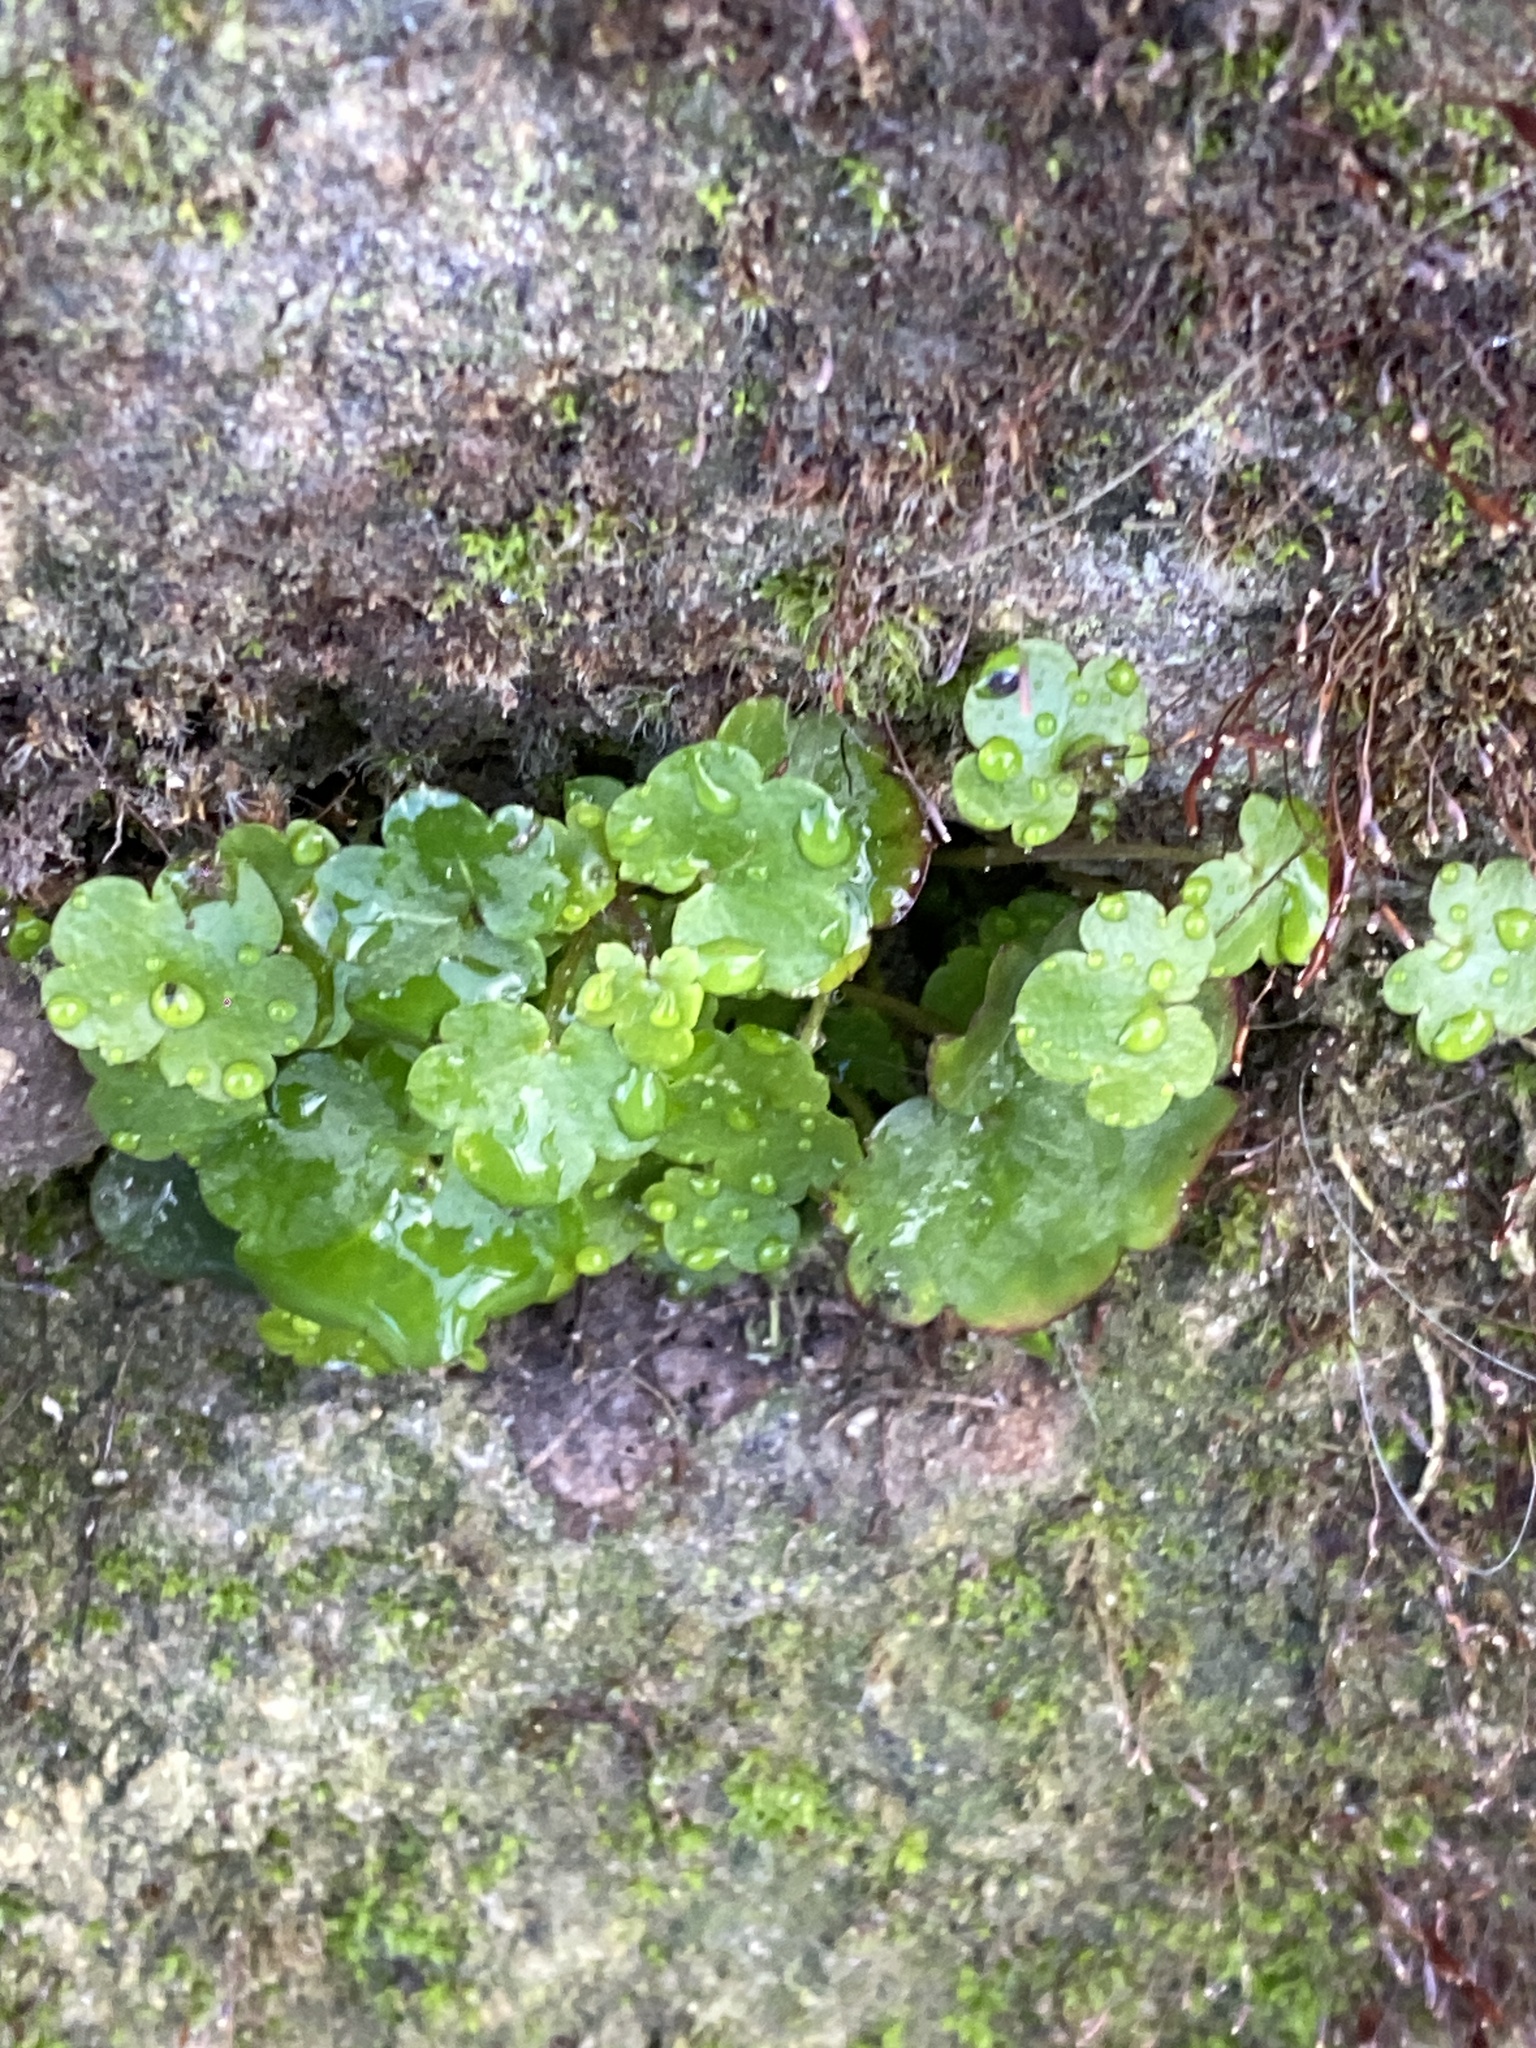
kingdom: Plantae
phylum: Tracheophyta
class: Magnoliopsida
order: Lamiales
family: Plantaginaceae
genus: Cymbalaria
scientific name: Cymbalaria muralis
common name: Ivy-leaved toadflax
